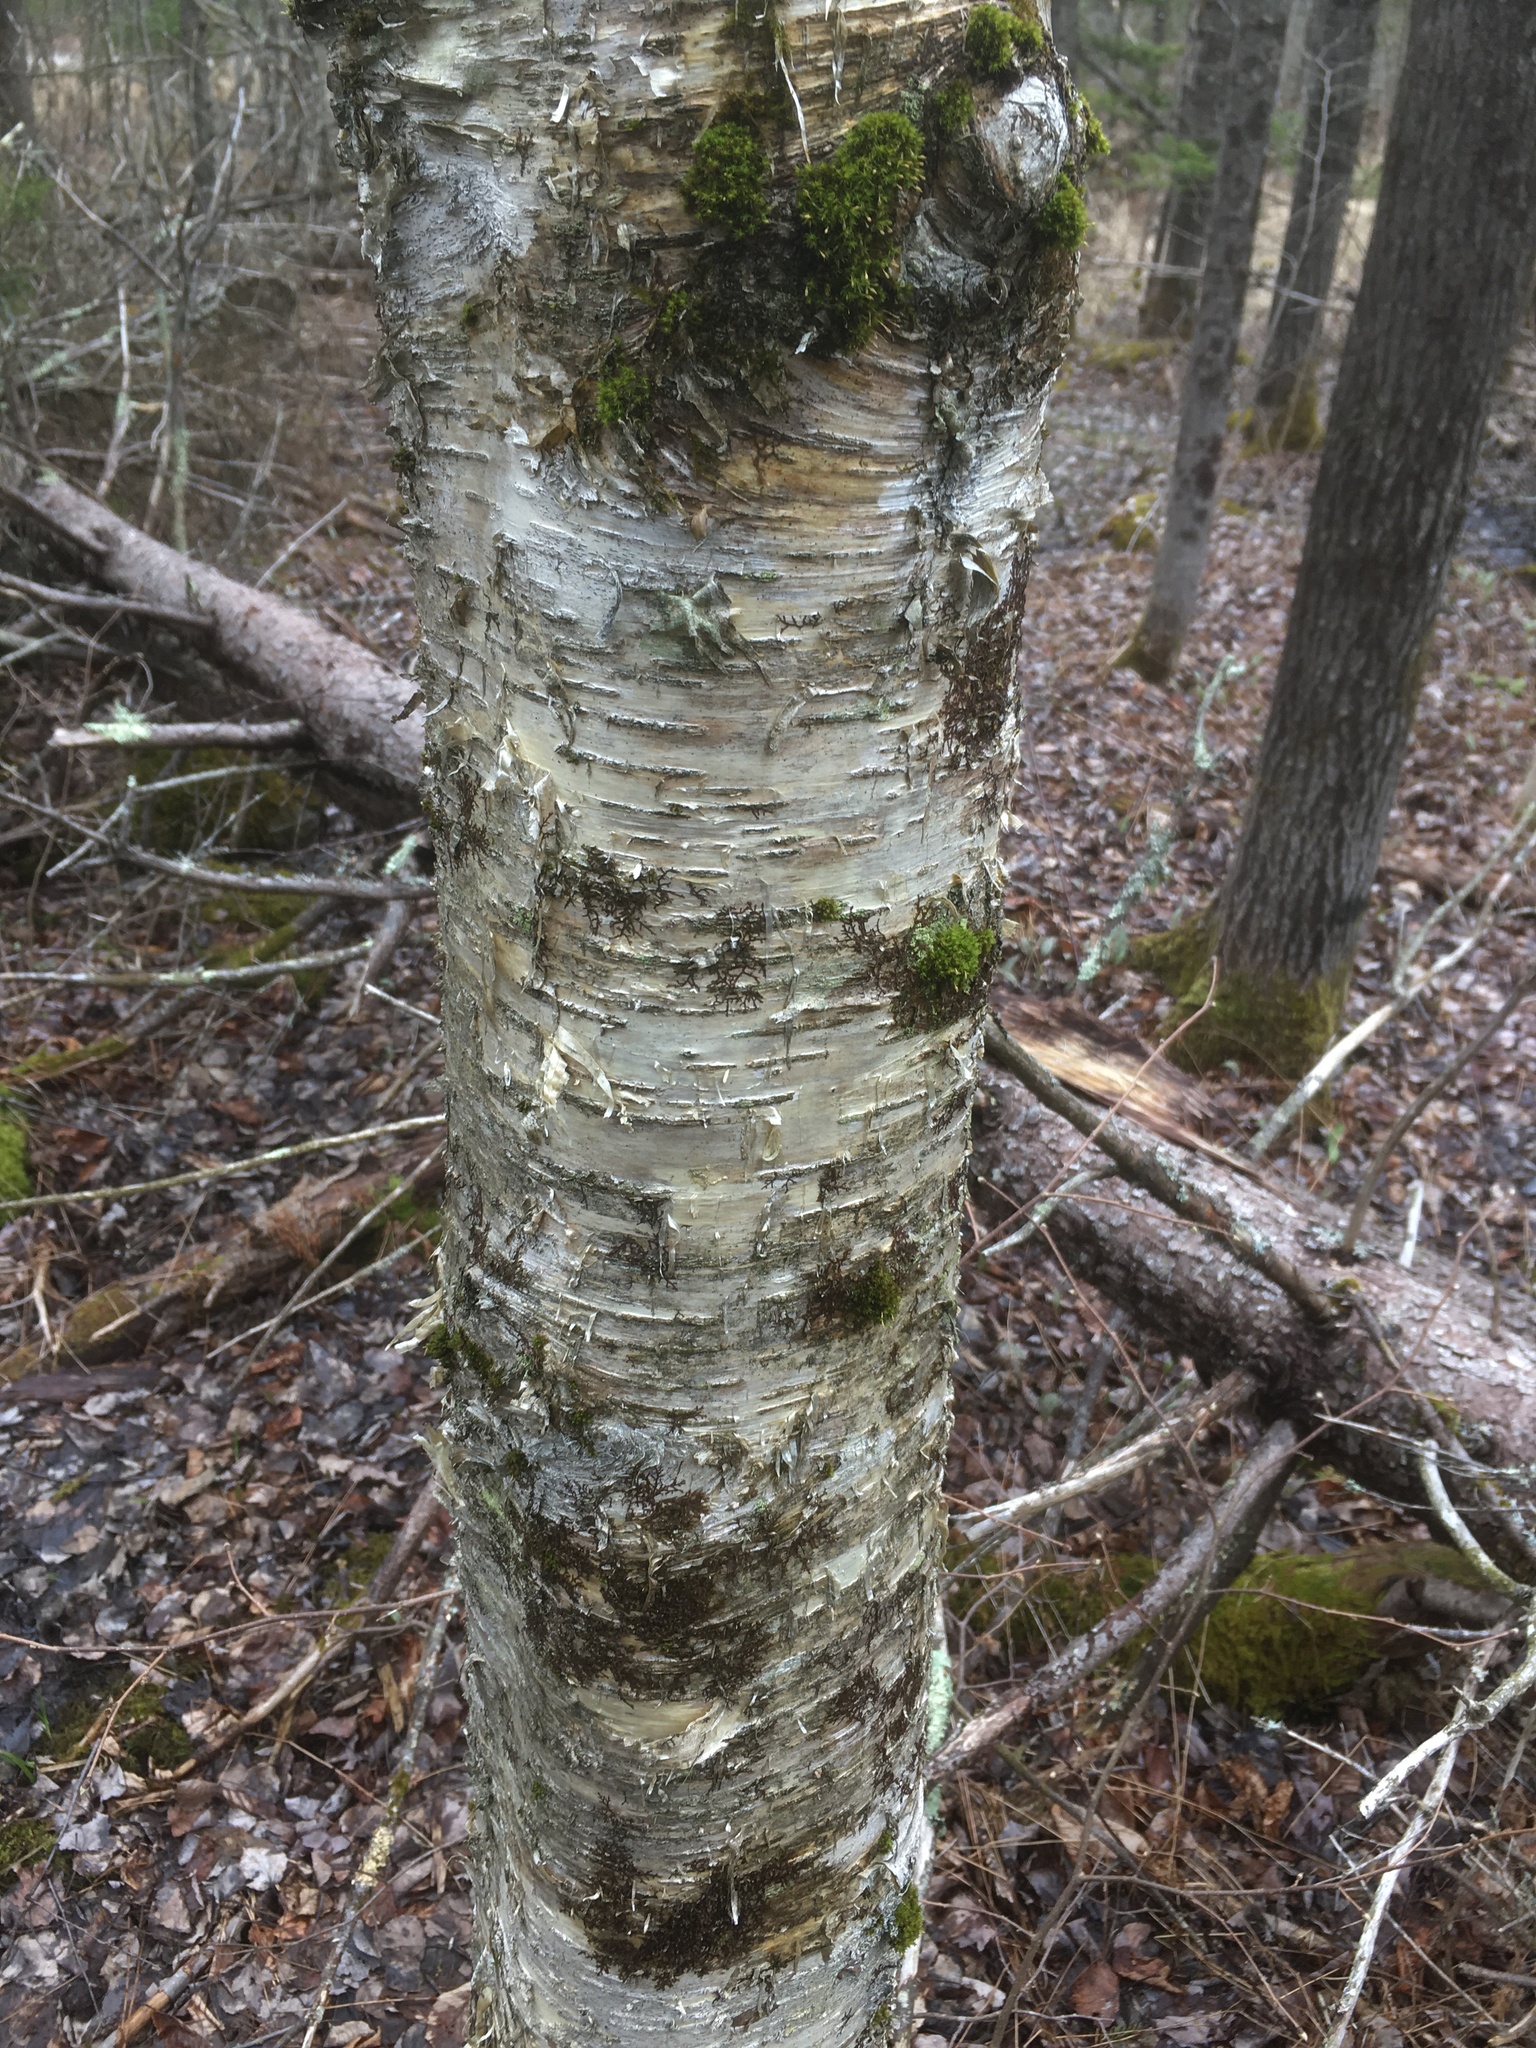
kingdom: Plantae
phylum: Tracheophyta
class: Magnoliopsida
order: Fagales
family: Betulaceae
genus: Betula
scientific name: Betula alleghaniensis
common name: Yellow birch
